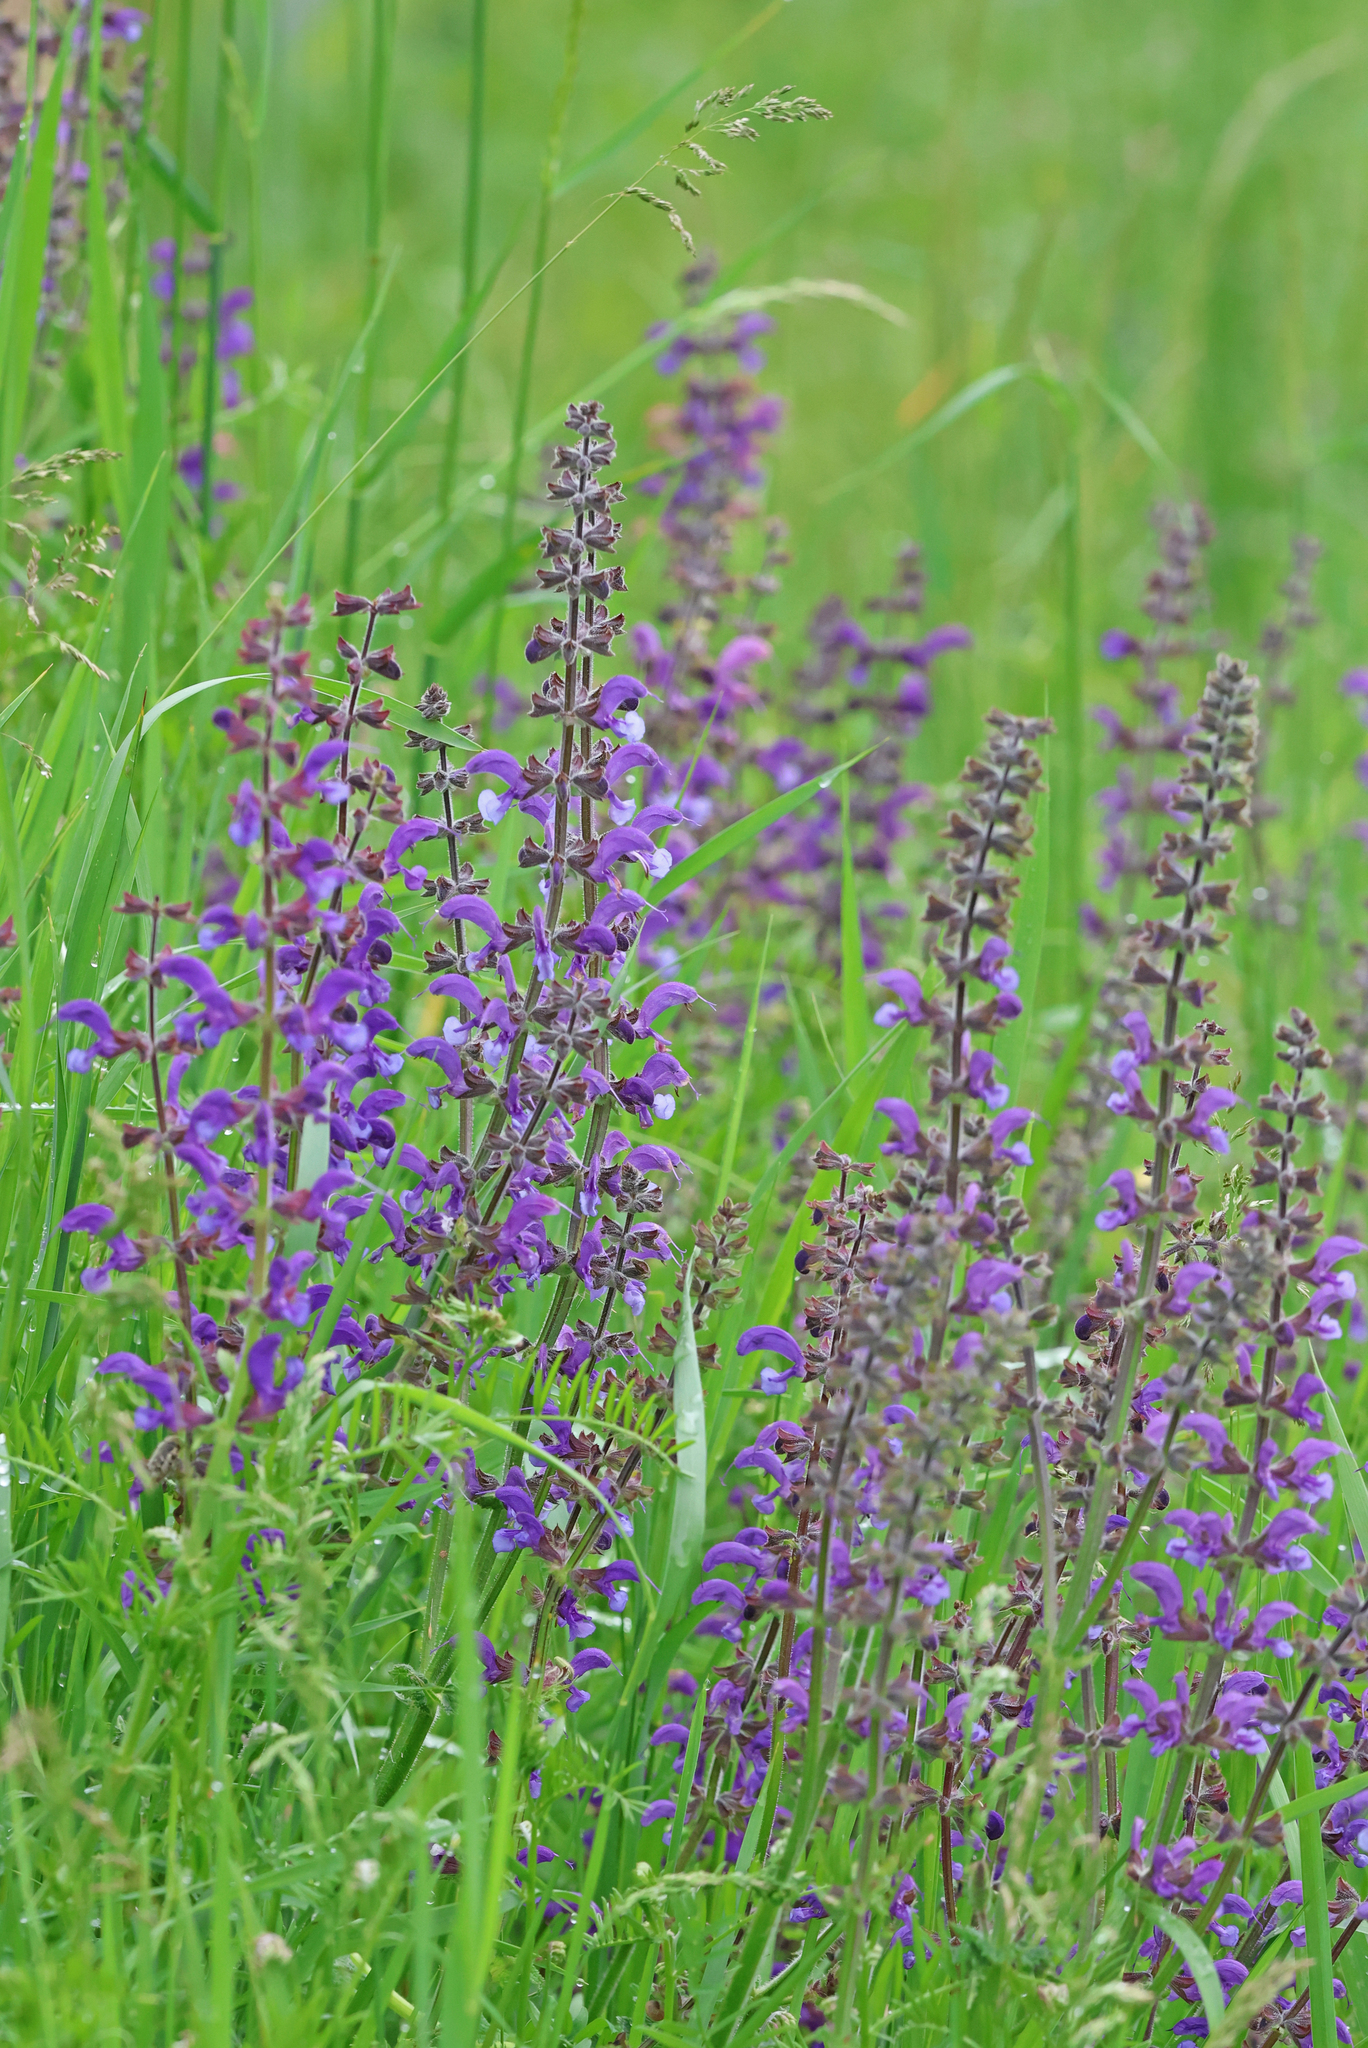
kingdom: Plantae
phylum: Tracheophyta
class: Magnoliopsida
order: Lamiales
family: Lamiaceae
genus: Salvia
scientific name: Salvia pratensis
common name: Meadow sage
